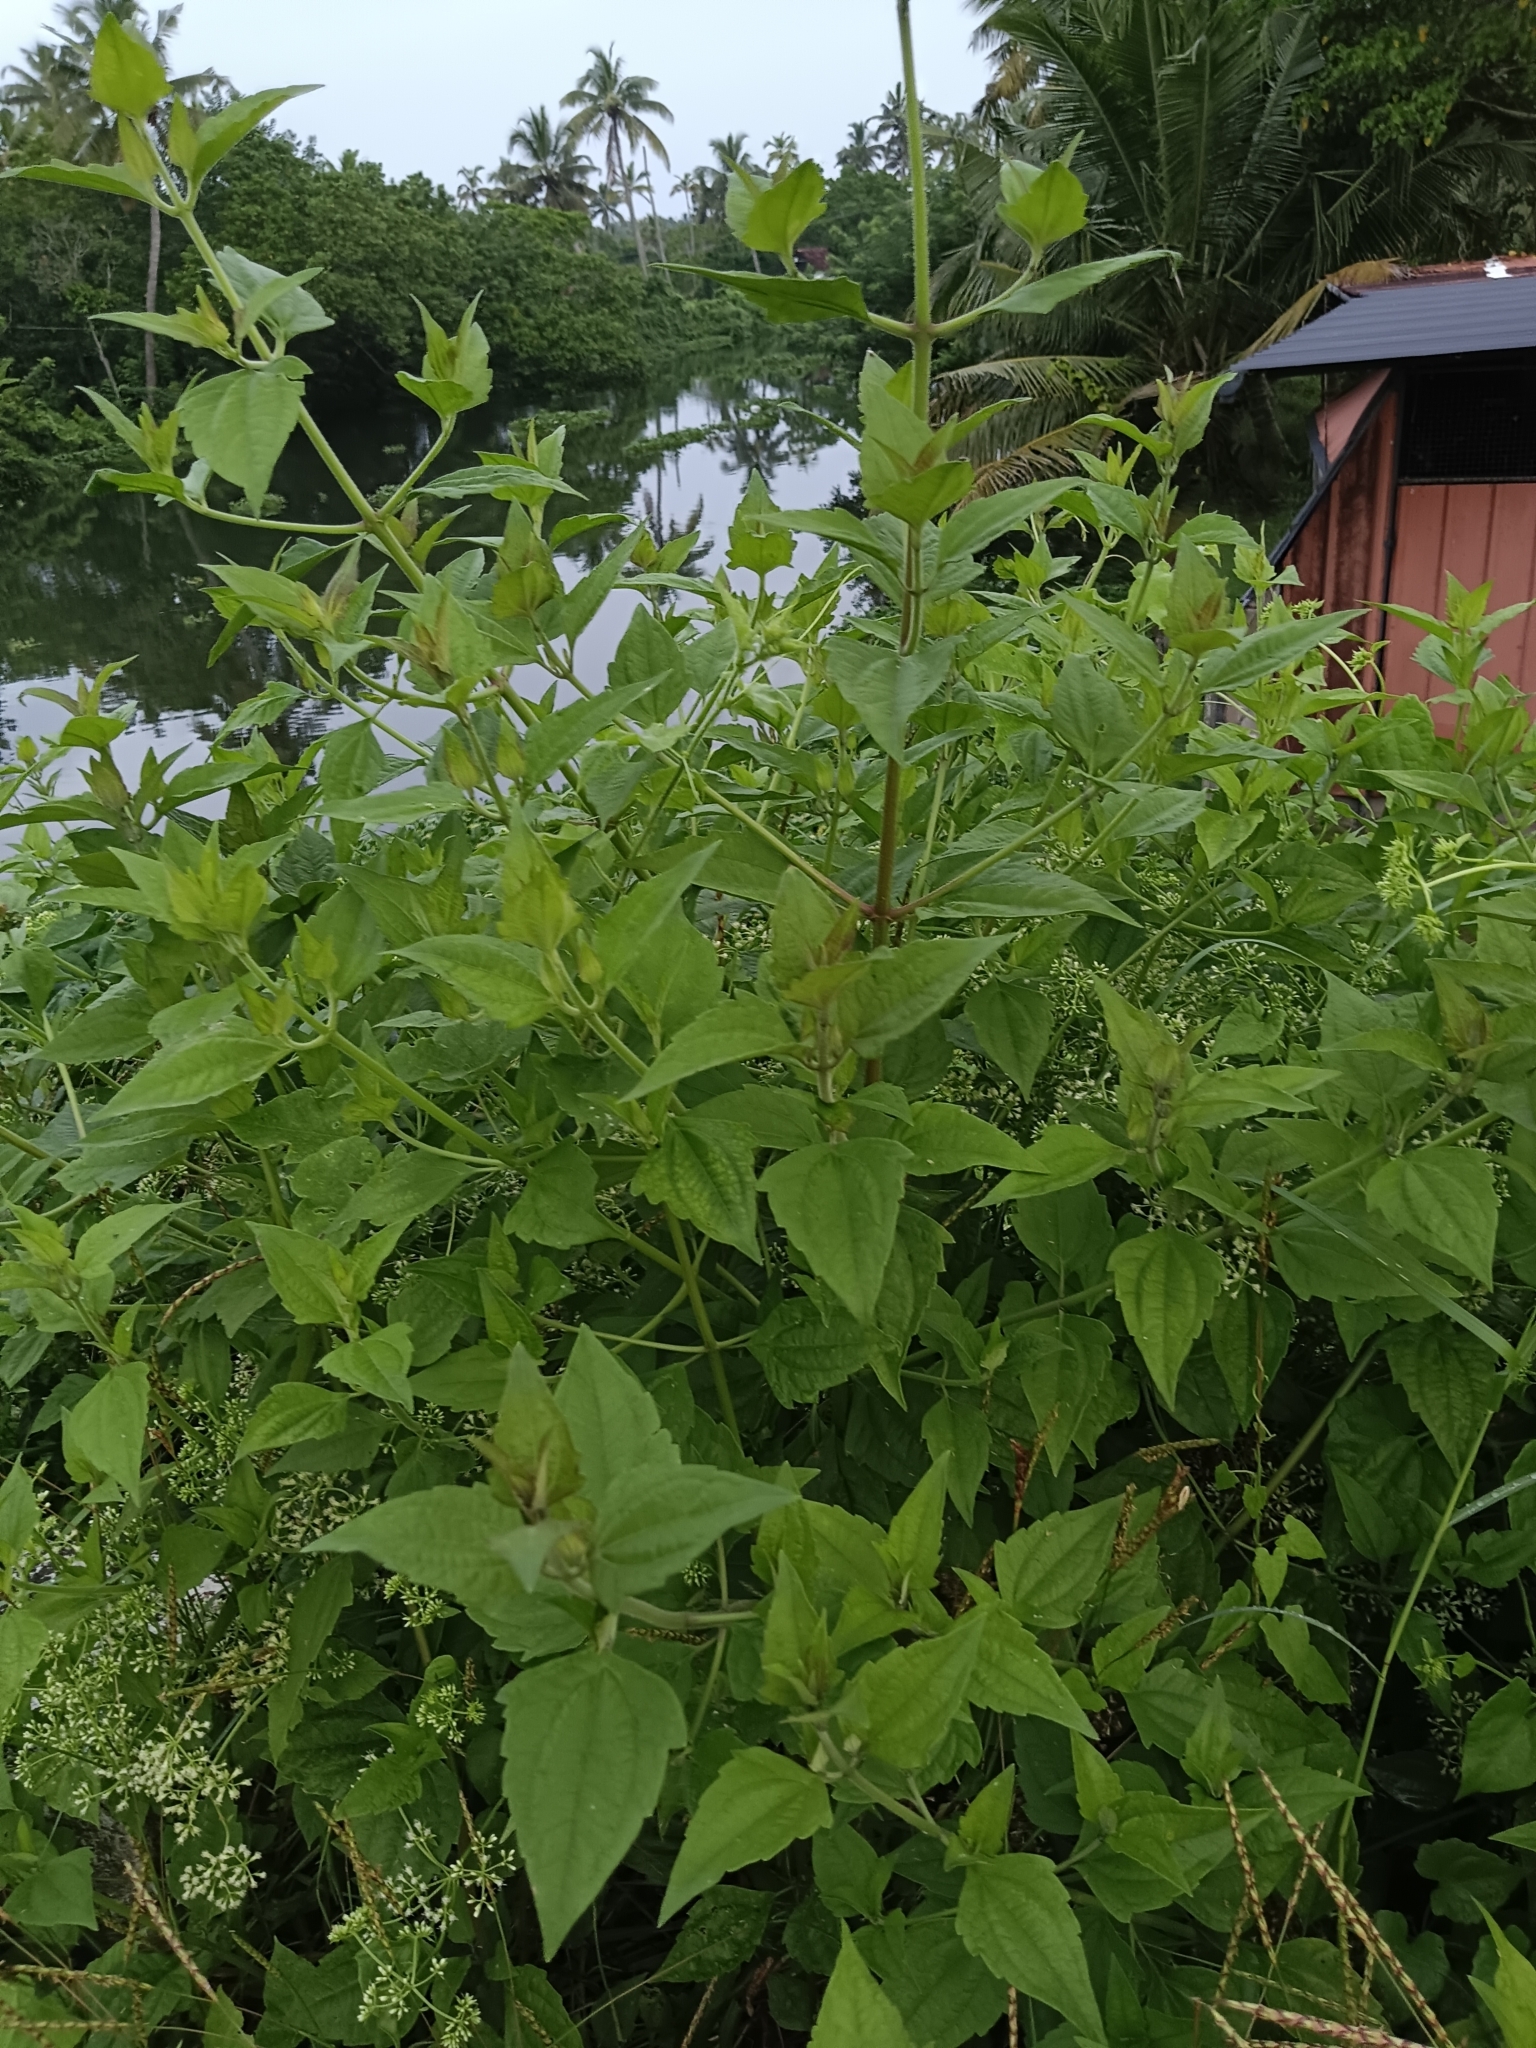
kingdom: Plantae
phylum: Tracheophyta
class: Magnoliopsida
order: Asterales
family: Asteraceae
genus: Chromolaena
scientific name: Chromolaena odorata
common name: Siamweed
